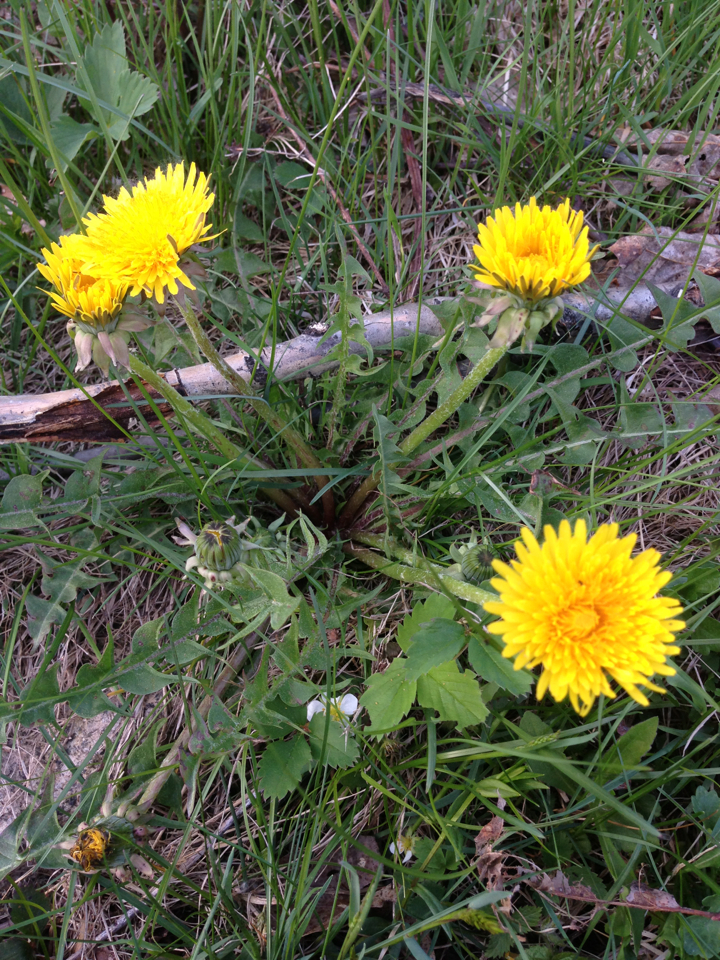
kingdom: Plantae
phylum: Tracheophyta
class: Magnoliopsida
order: Asterales
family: Asteraceae
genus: Taraxacum
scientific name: Taraxacum officinale
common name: Common dandelion
